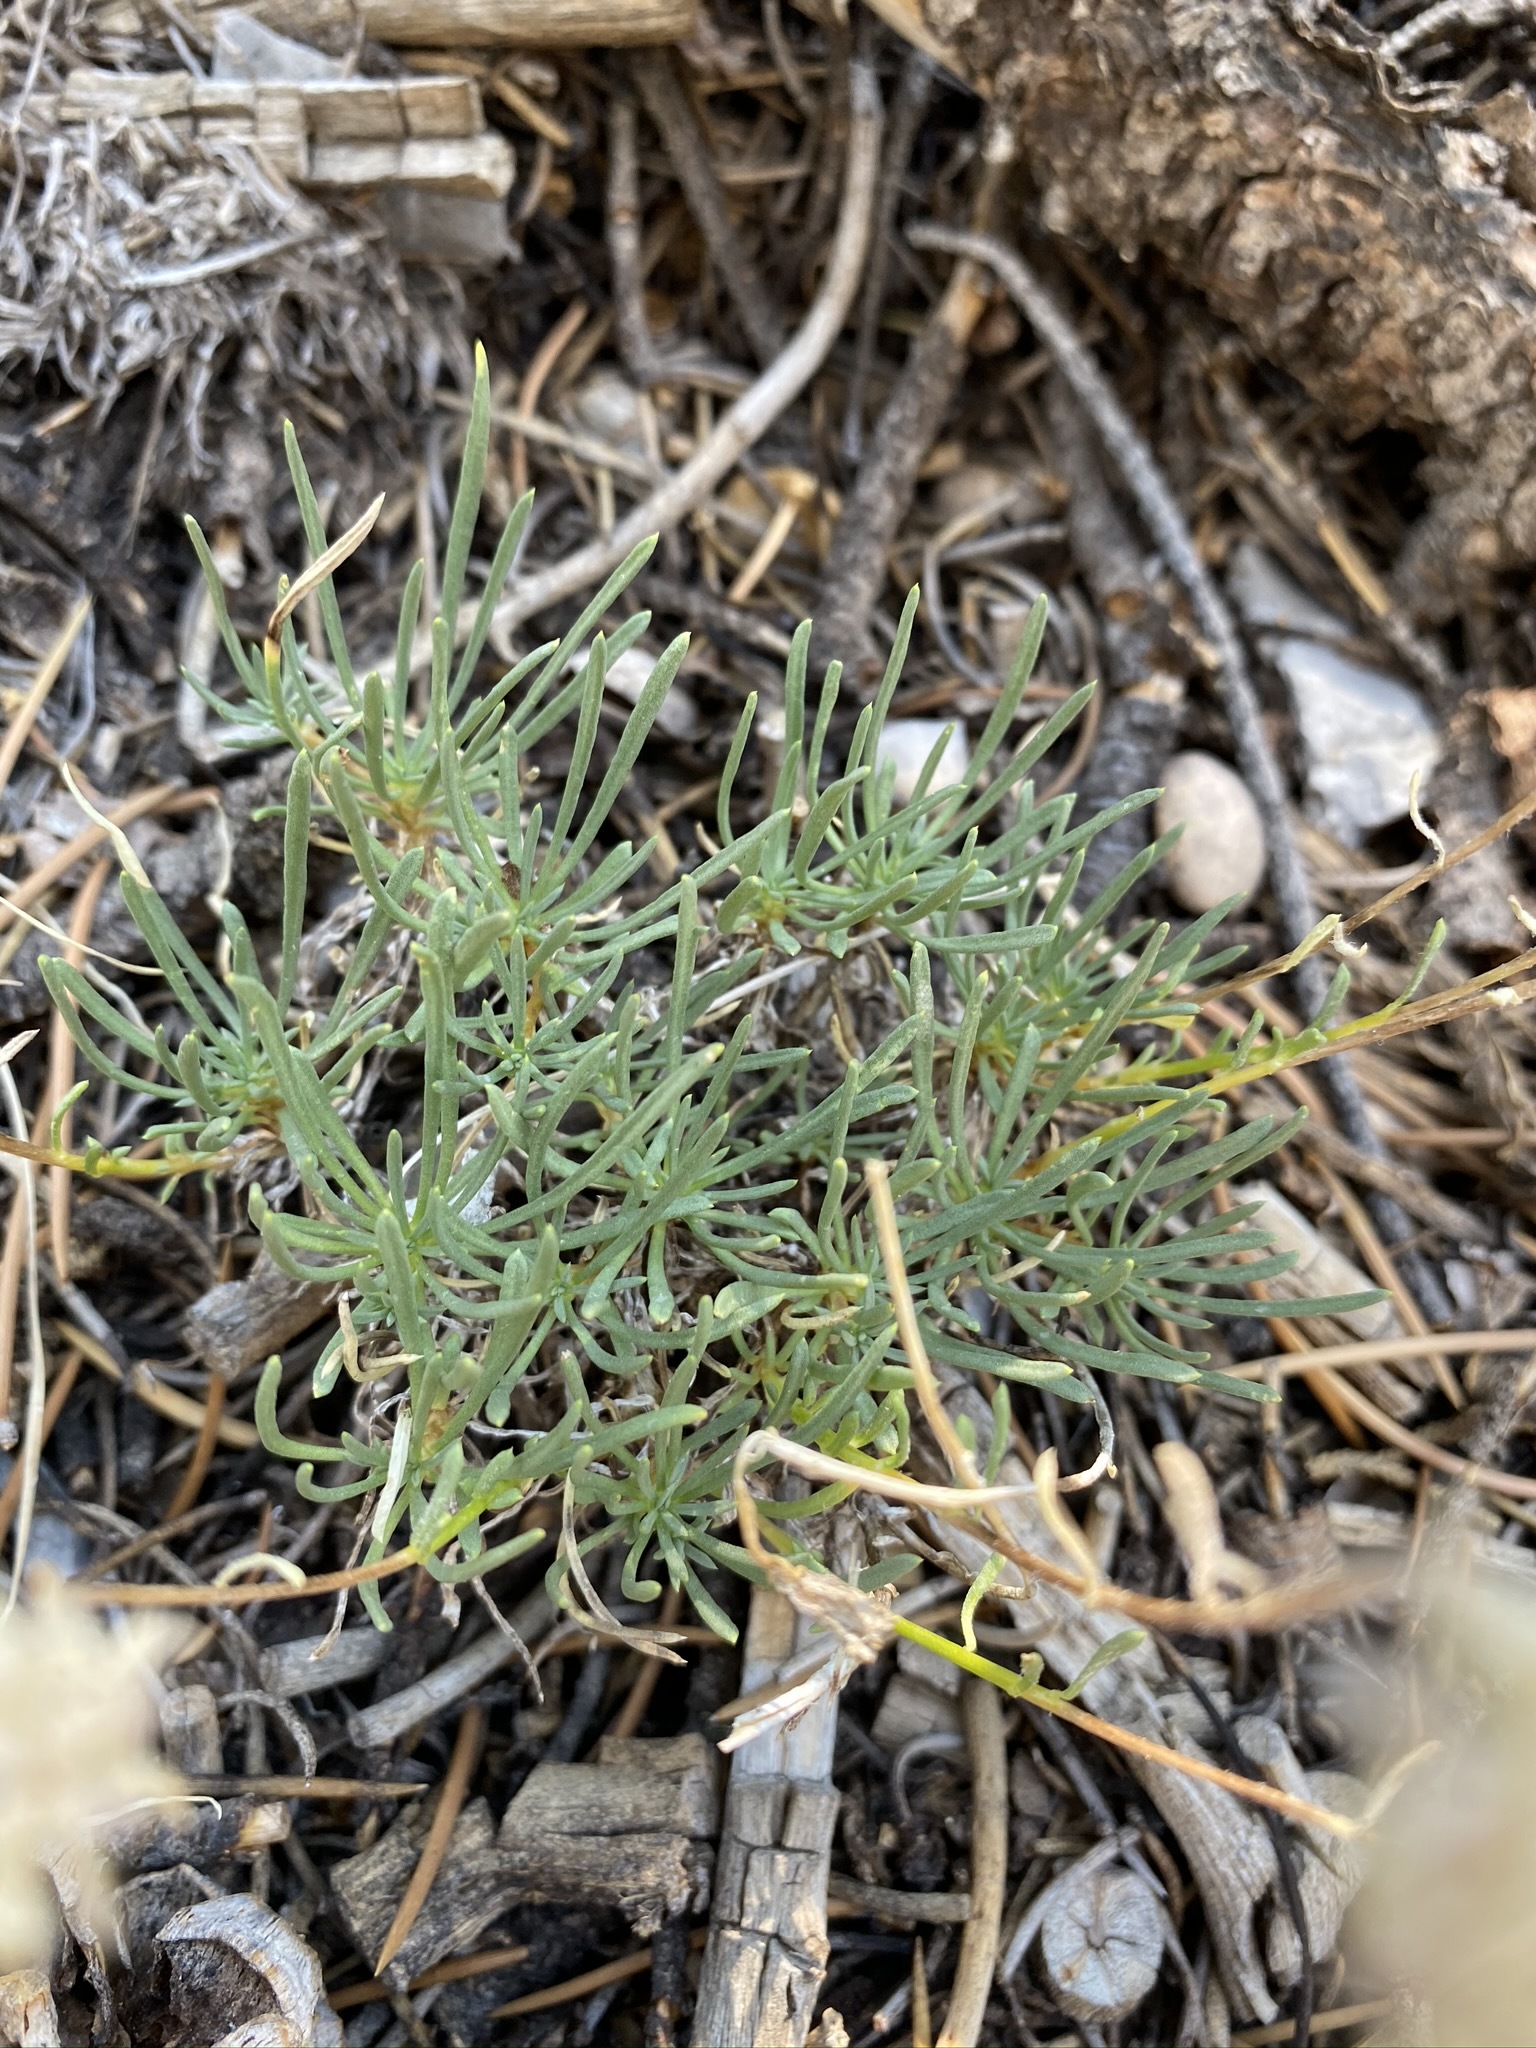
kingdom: Plantae
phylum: Tracheophyta
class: Magnoliopsida
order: Ericales
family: Polemoniaceae
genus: Ipomopsis
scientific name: Ipomopsis congesta
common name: Ball-head gilia
